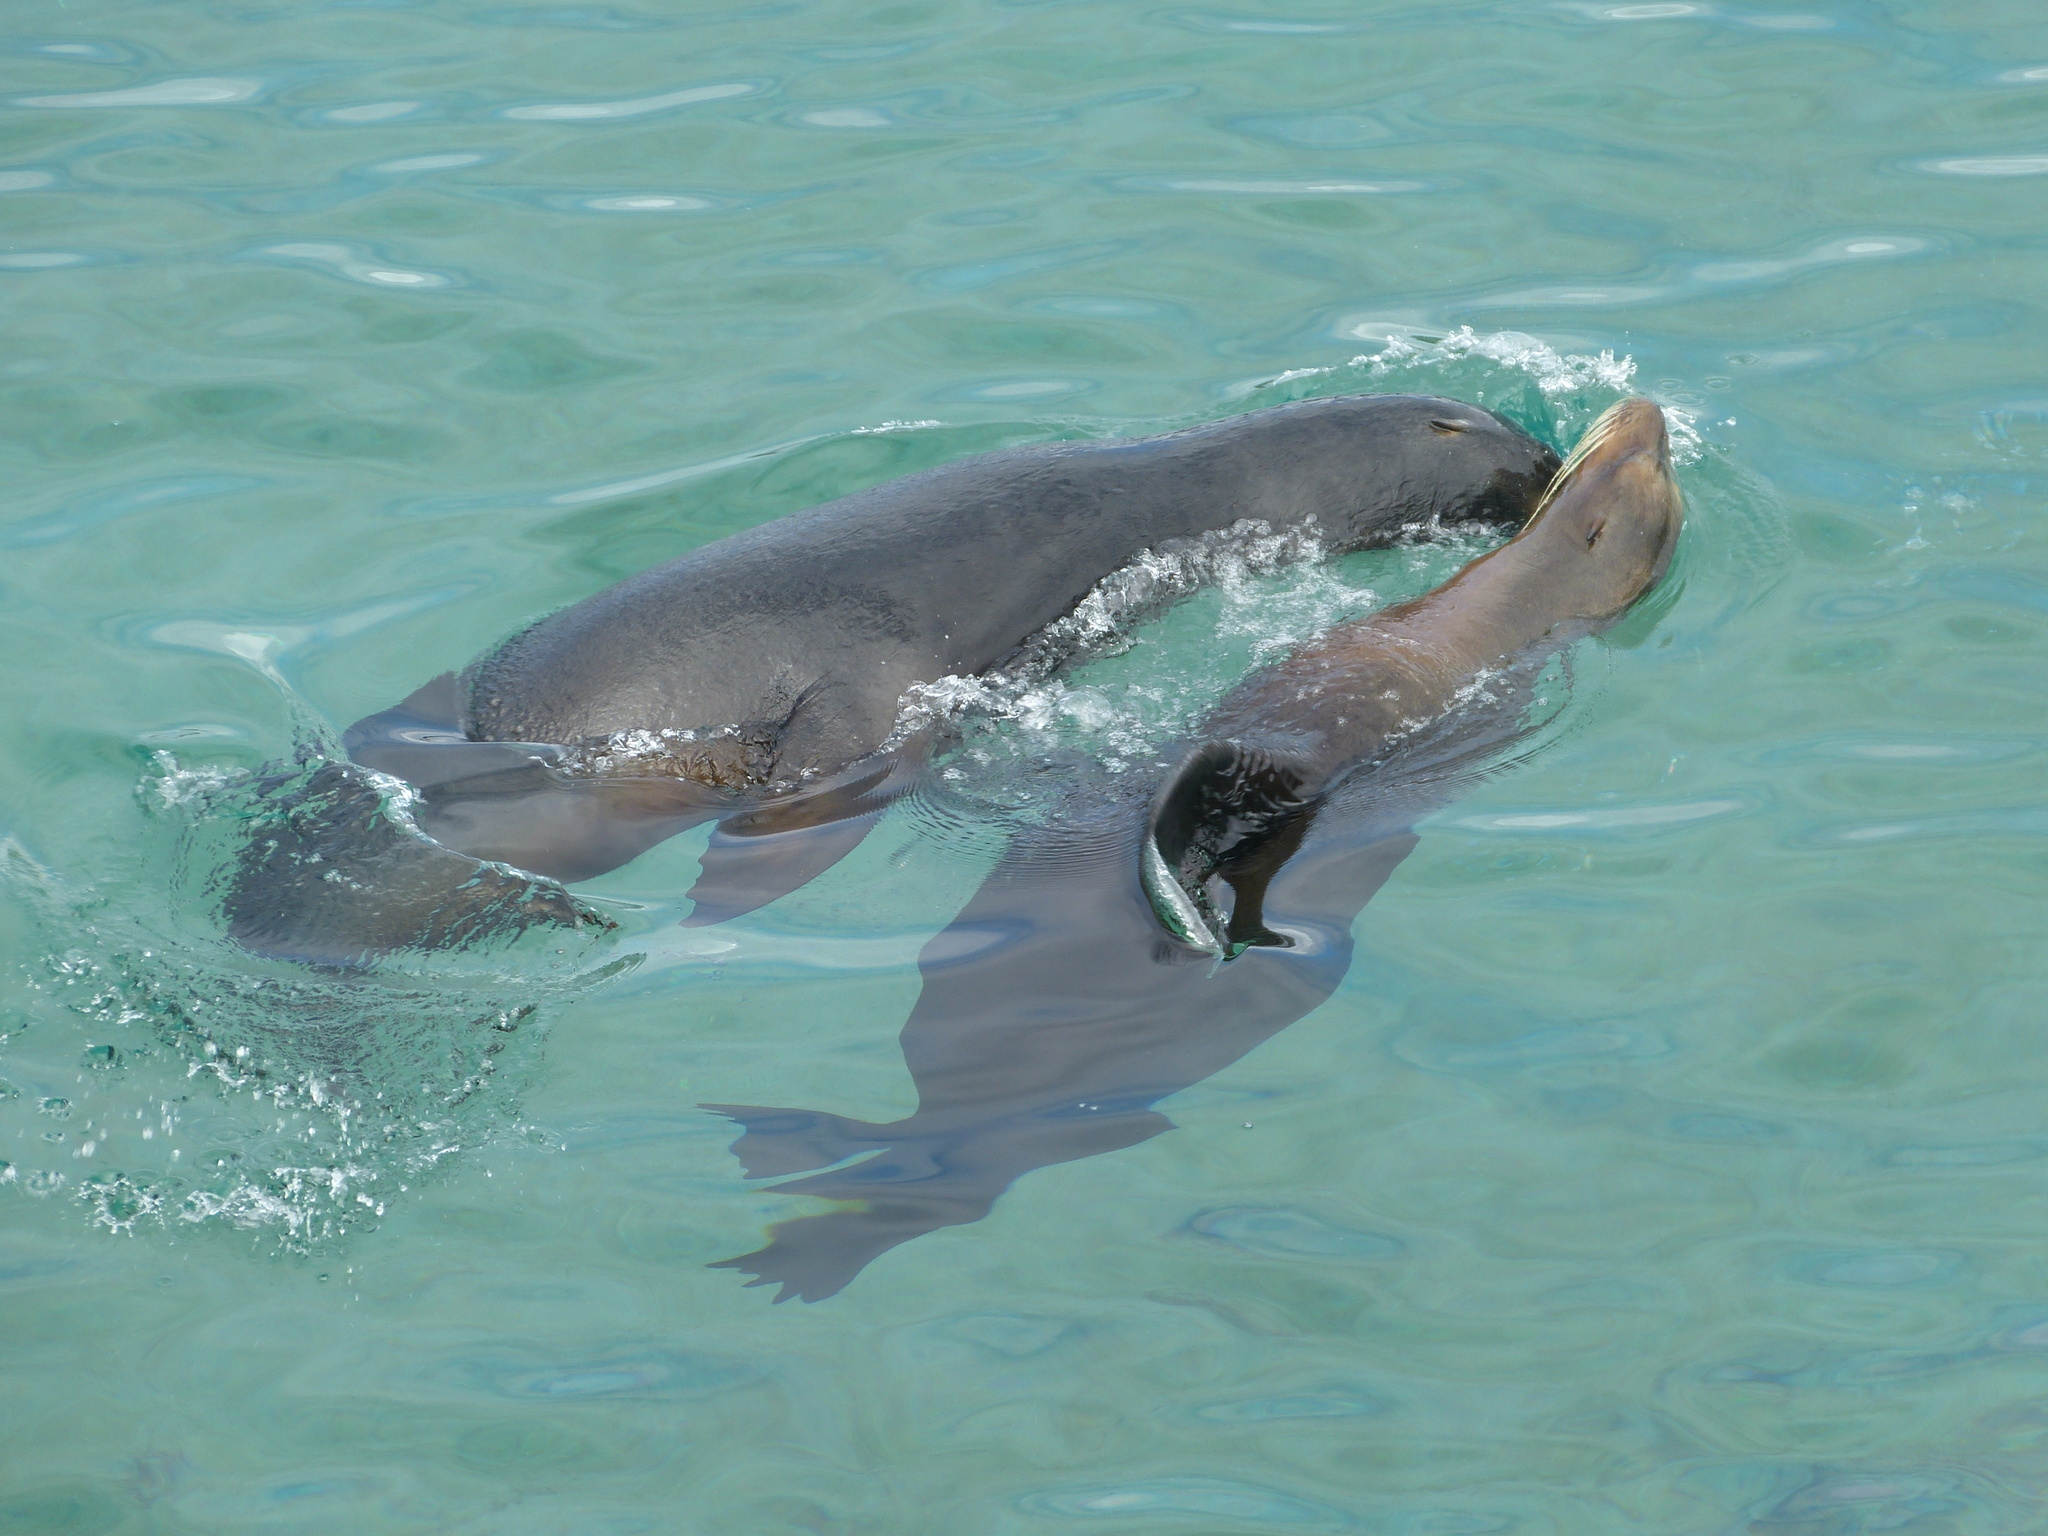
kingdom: Animalia
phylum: Chordata
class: Mammalia
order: Carnivora
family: Otariidae
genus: Zalophus
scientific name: Zalophus wollebaeki
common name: Galapagos sea lion
